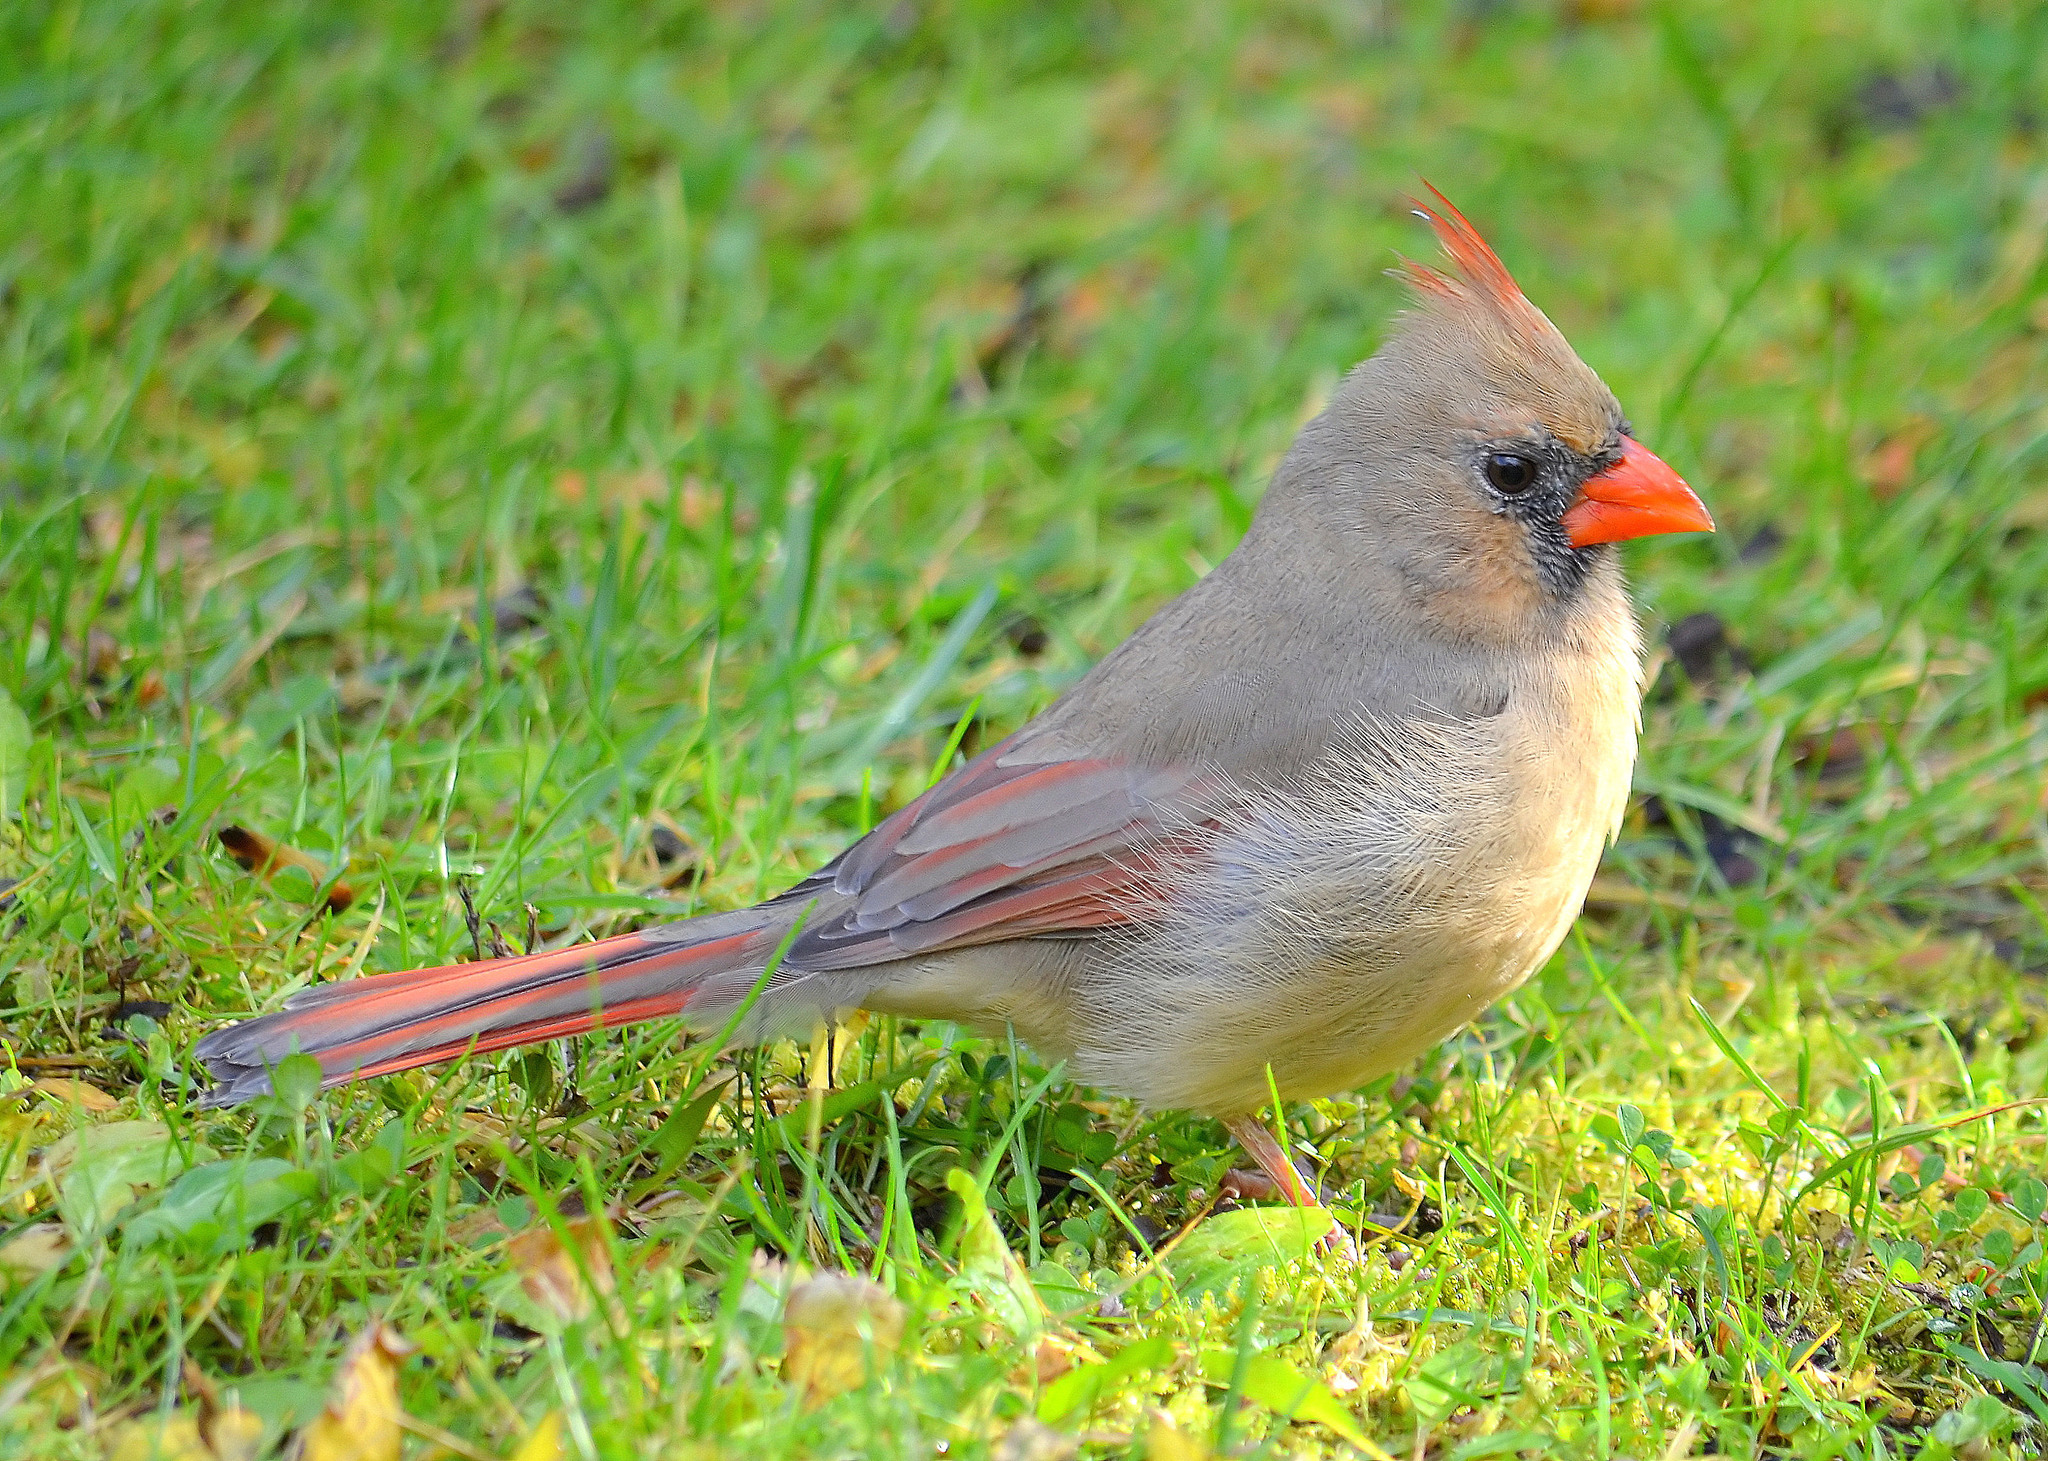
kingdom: Animalia
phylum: Chordata
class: Aves
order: Passeriformes
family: Cardinalidae
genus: Cardinalis
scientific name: Cardinalis cardinalis
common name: Northern cardinal
